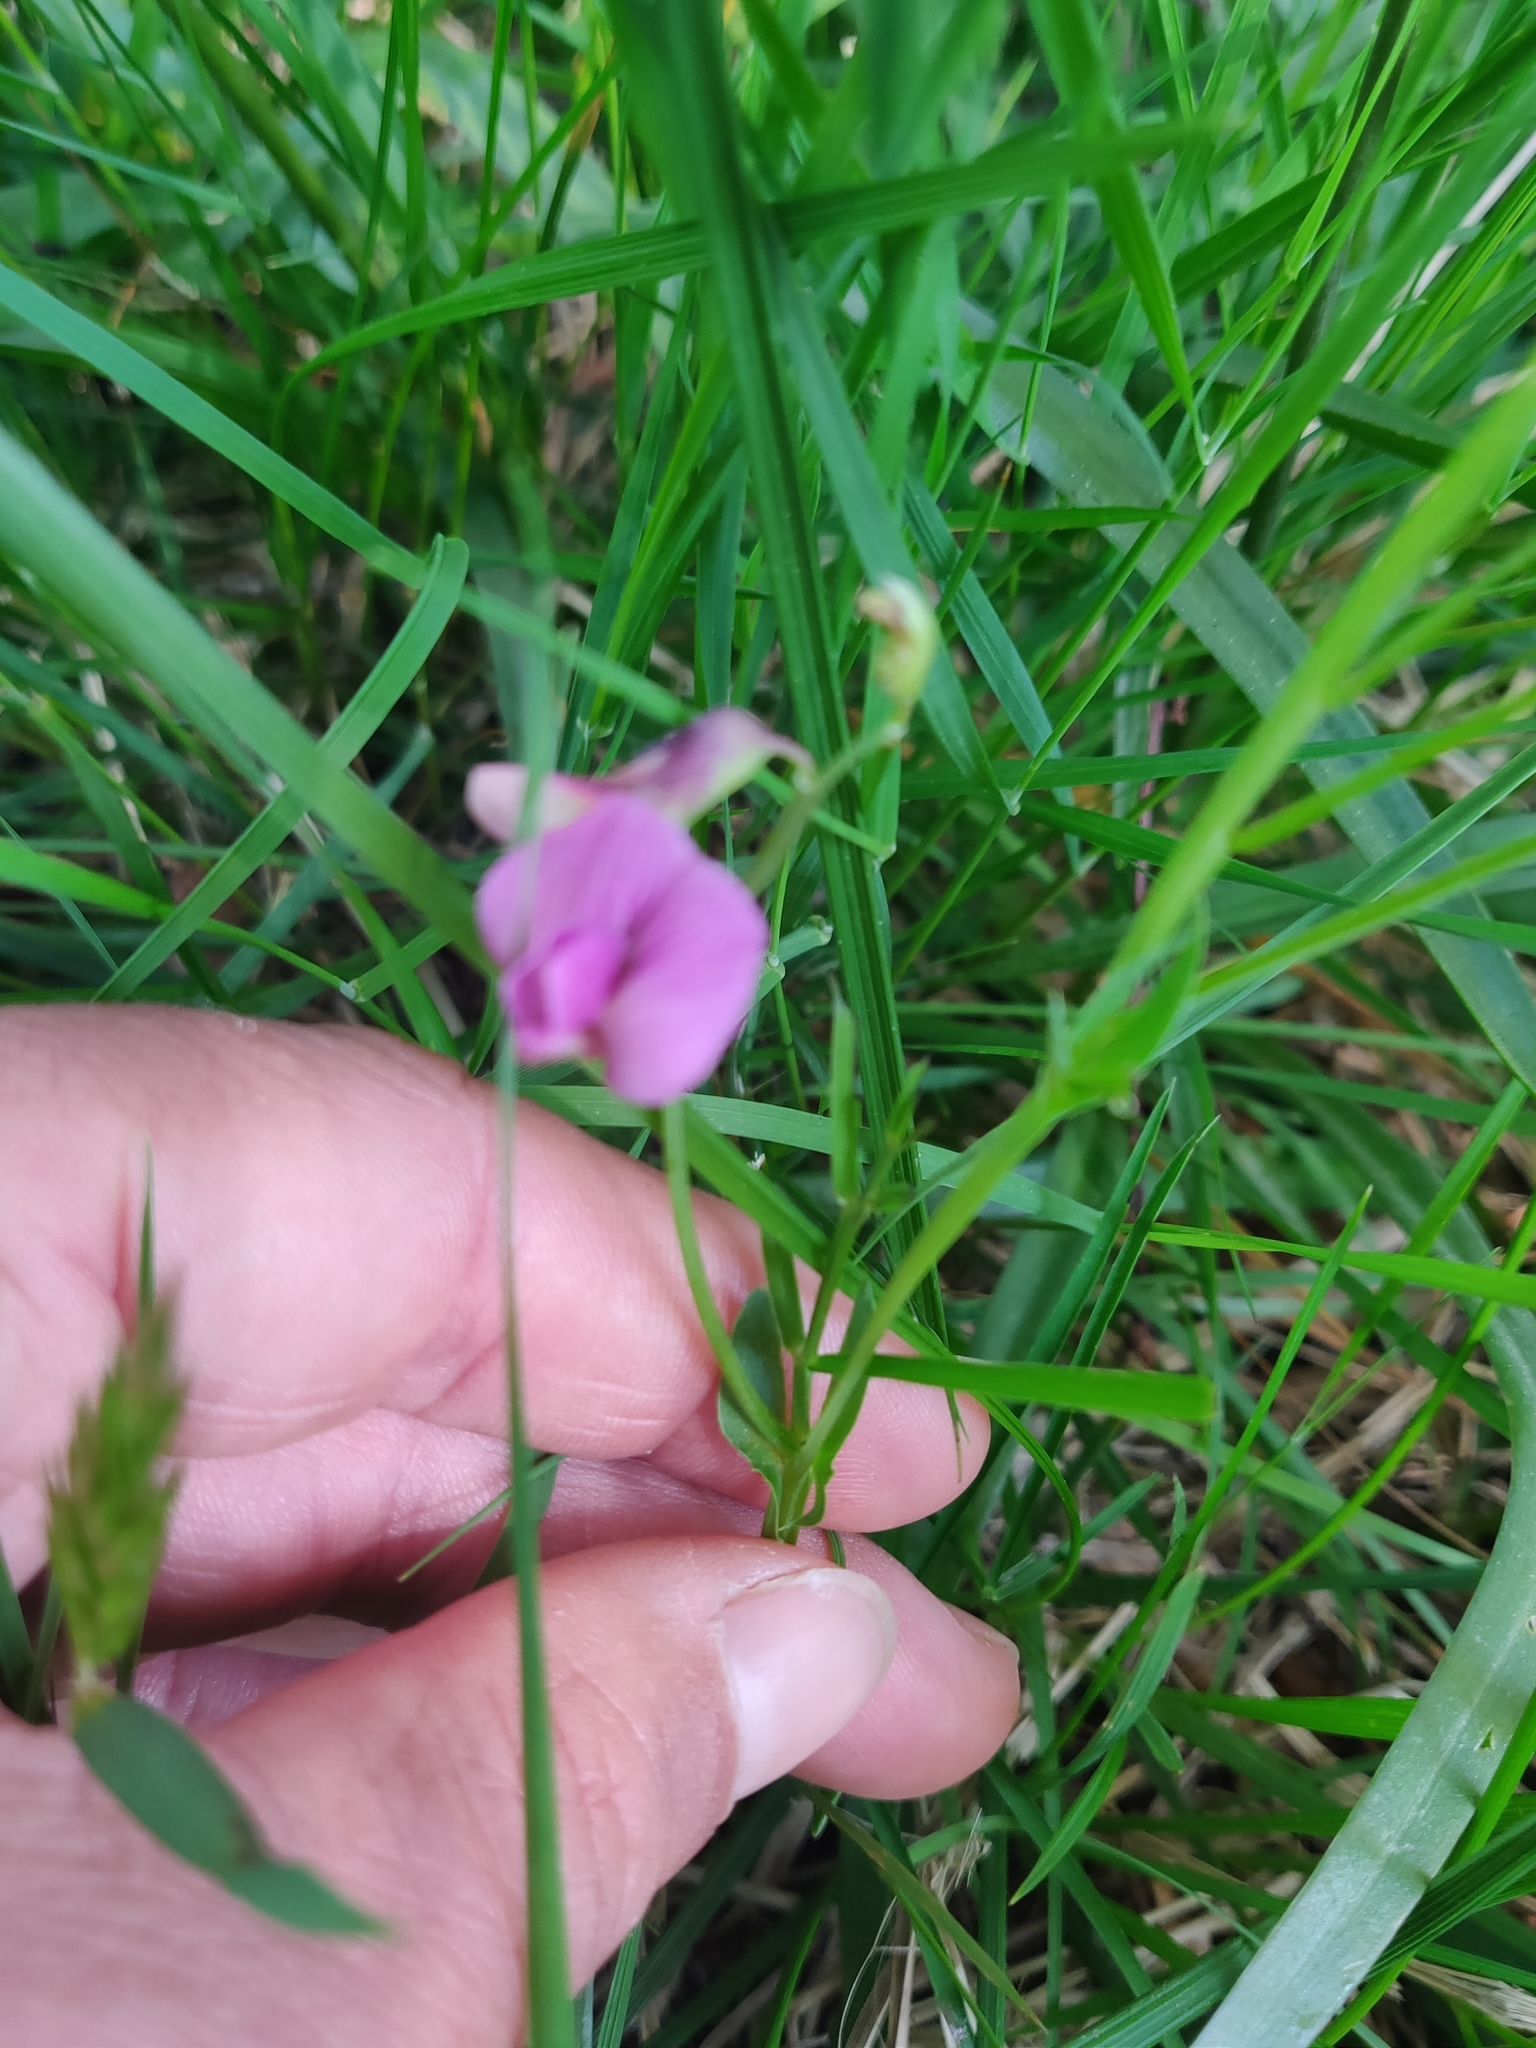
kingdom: Plantae
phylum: Tracheophyta
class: Magnoliopsida
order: Fabales
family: Fabaceae
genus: Lathyrus
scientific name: Lathyrus linifolius
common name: Bitter-vetch
